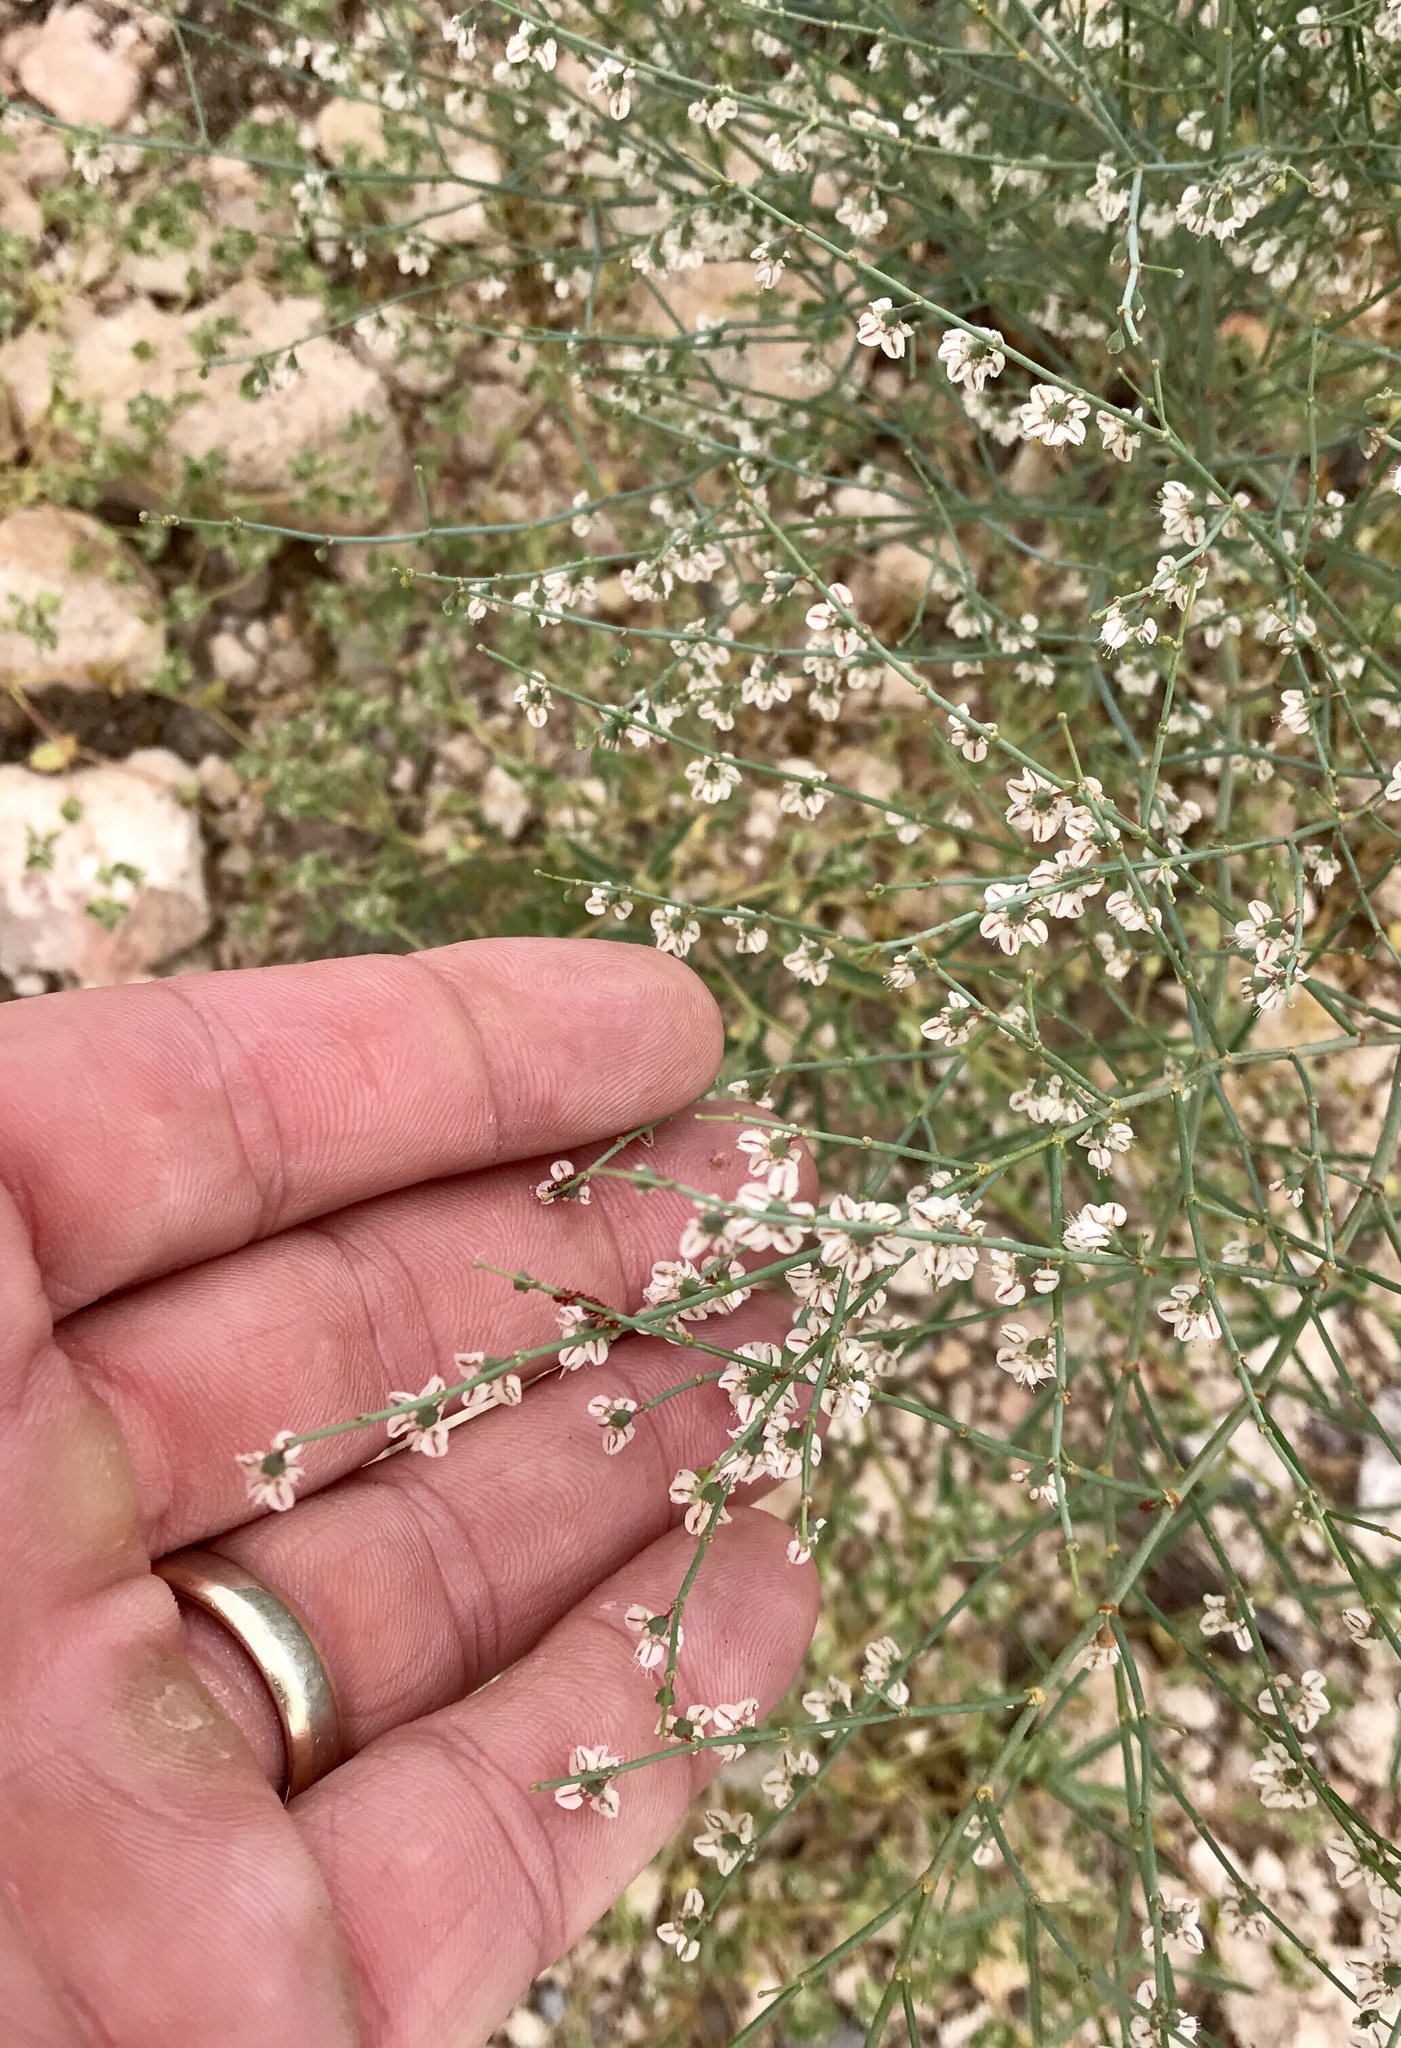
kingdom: Plantae
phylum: Tracheophyta
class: Magnoliopsida
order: Caryophyllales
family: Polygonaceae
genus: Eriogonum
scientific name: Eriogonum deflexum
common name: Skeleton-weed
